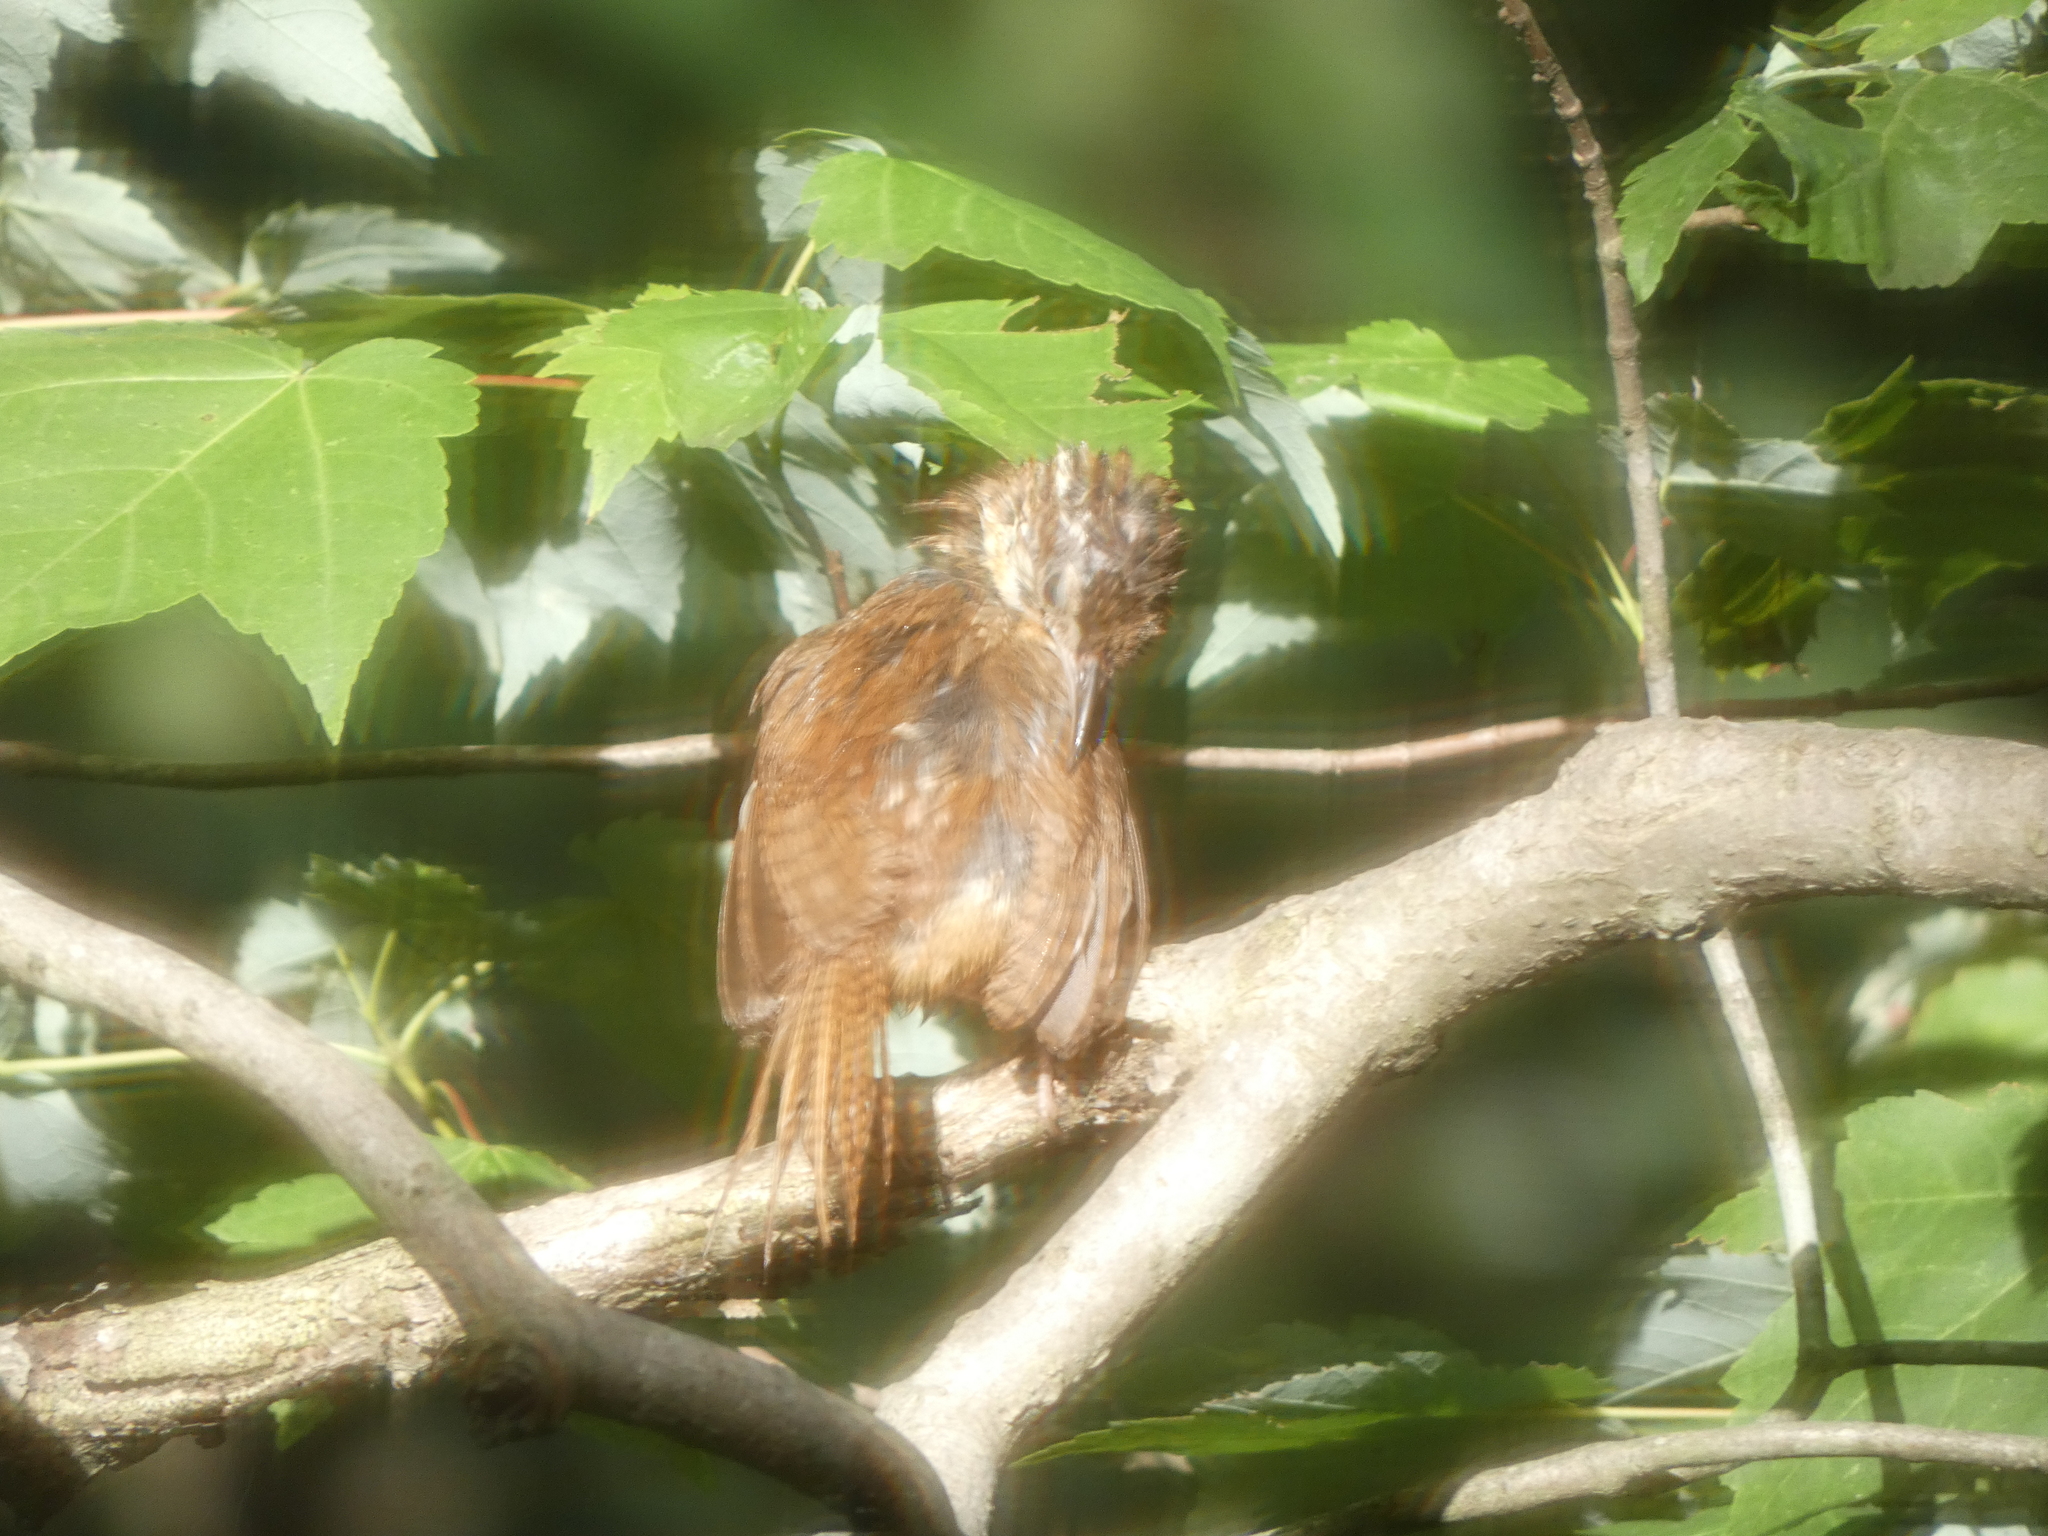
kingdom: Animalia
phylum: Chordata
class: Aves
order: Passeriformes
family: Troglodytidae
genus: Thryothorus
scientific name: Thryothorus ludovicianus
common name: Carolina wren
